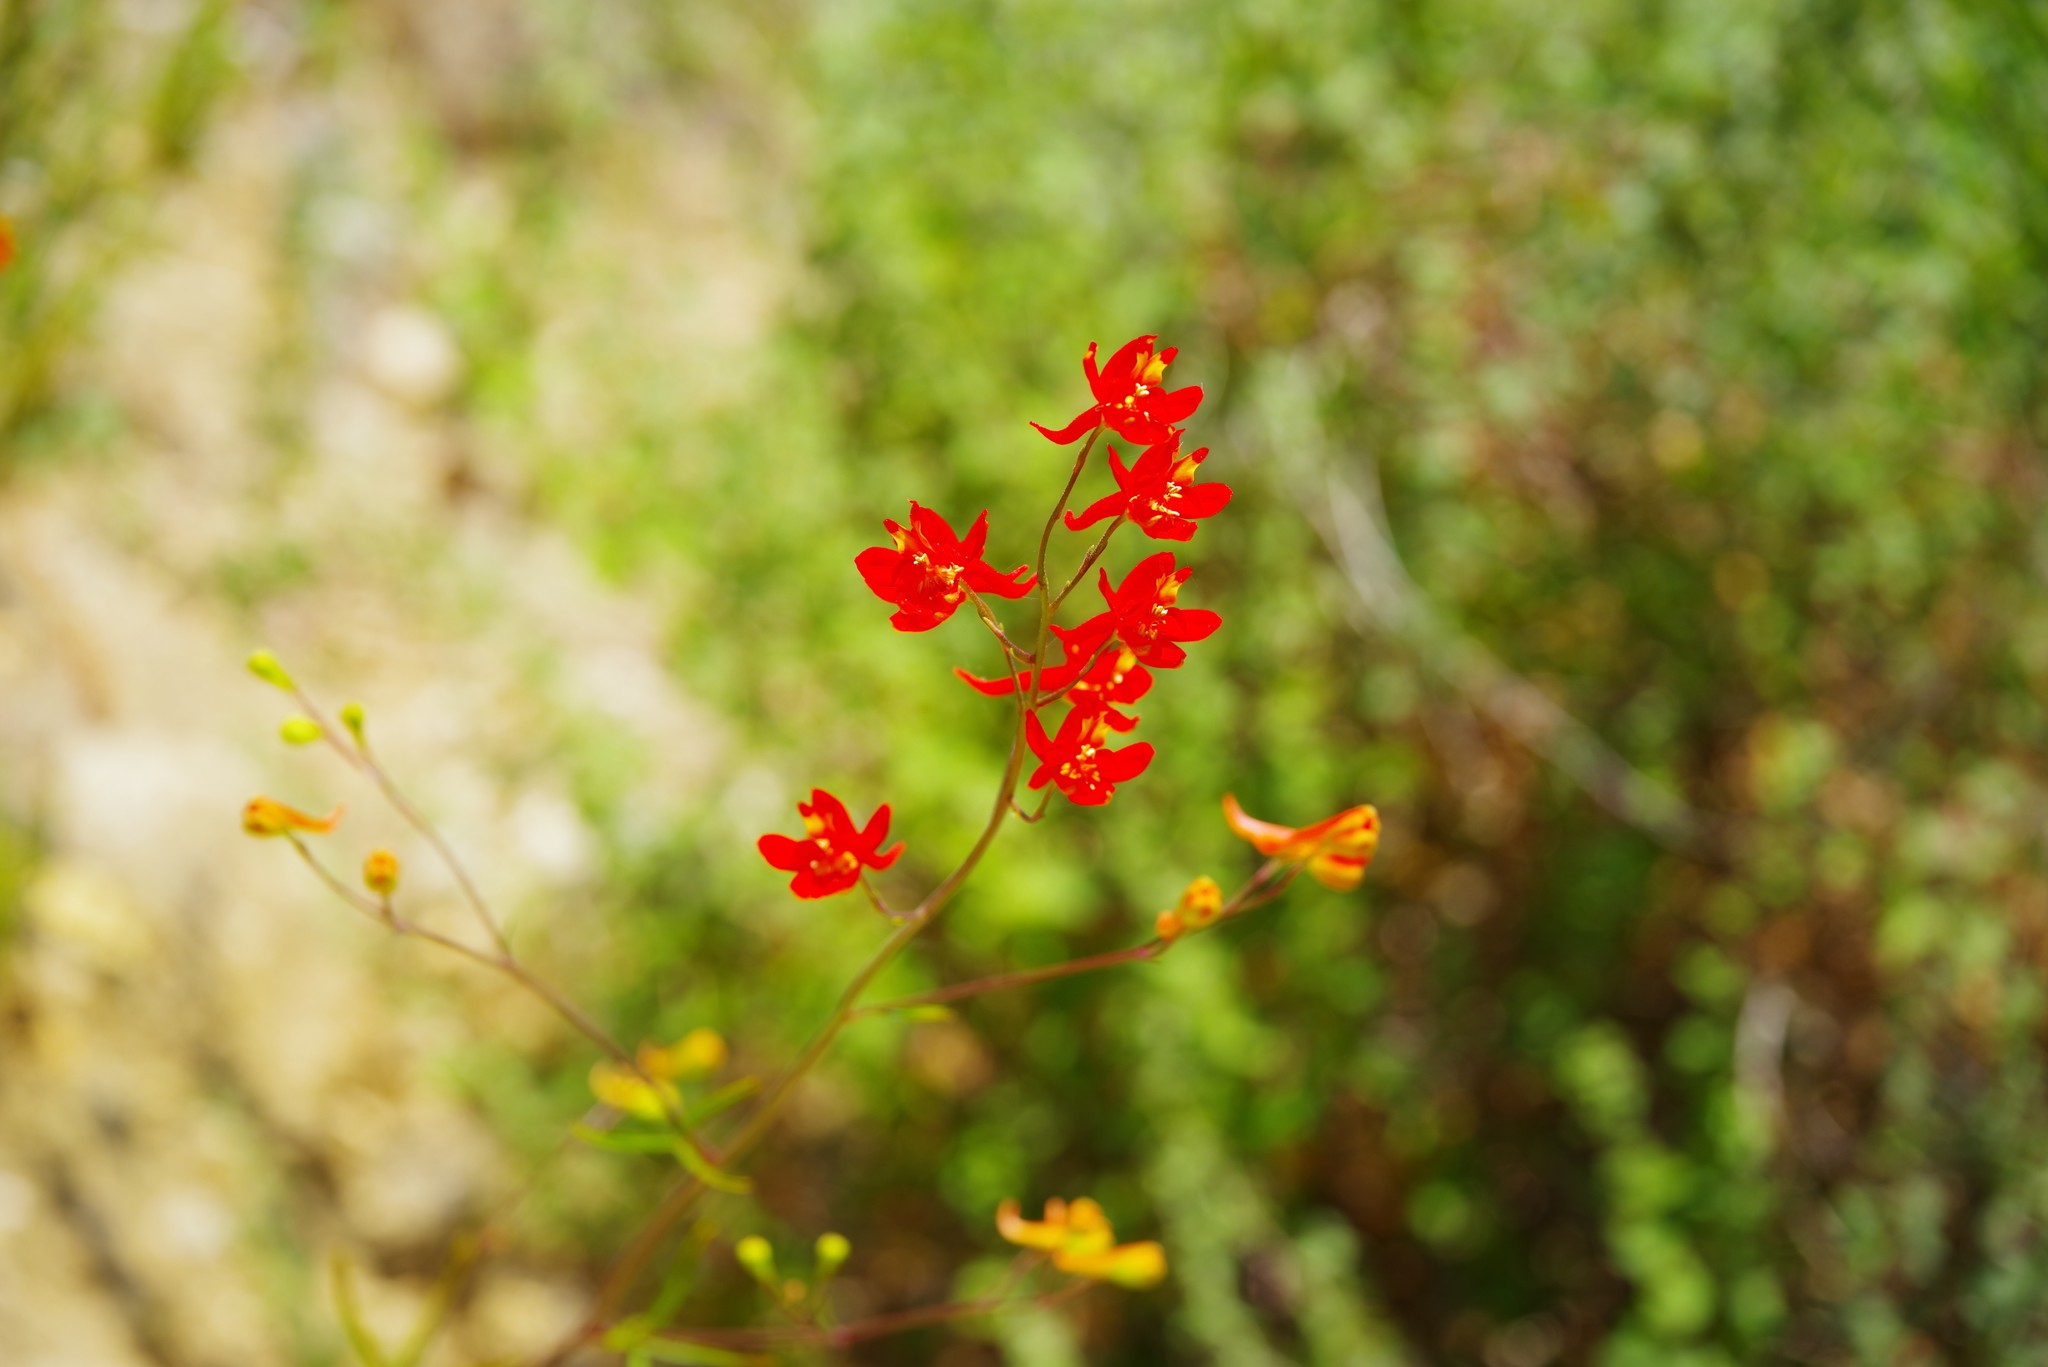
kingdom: Plantae
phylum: Tracheophyta
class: Magnoliopsida
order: Ranunculales
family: Ranunculaceae
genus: Delphinium
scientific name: Delphinium cardinale
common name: Scarlet larkspur
